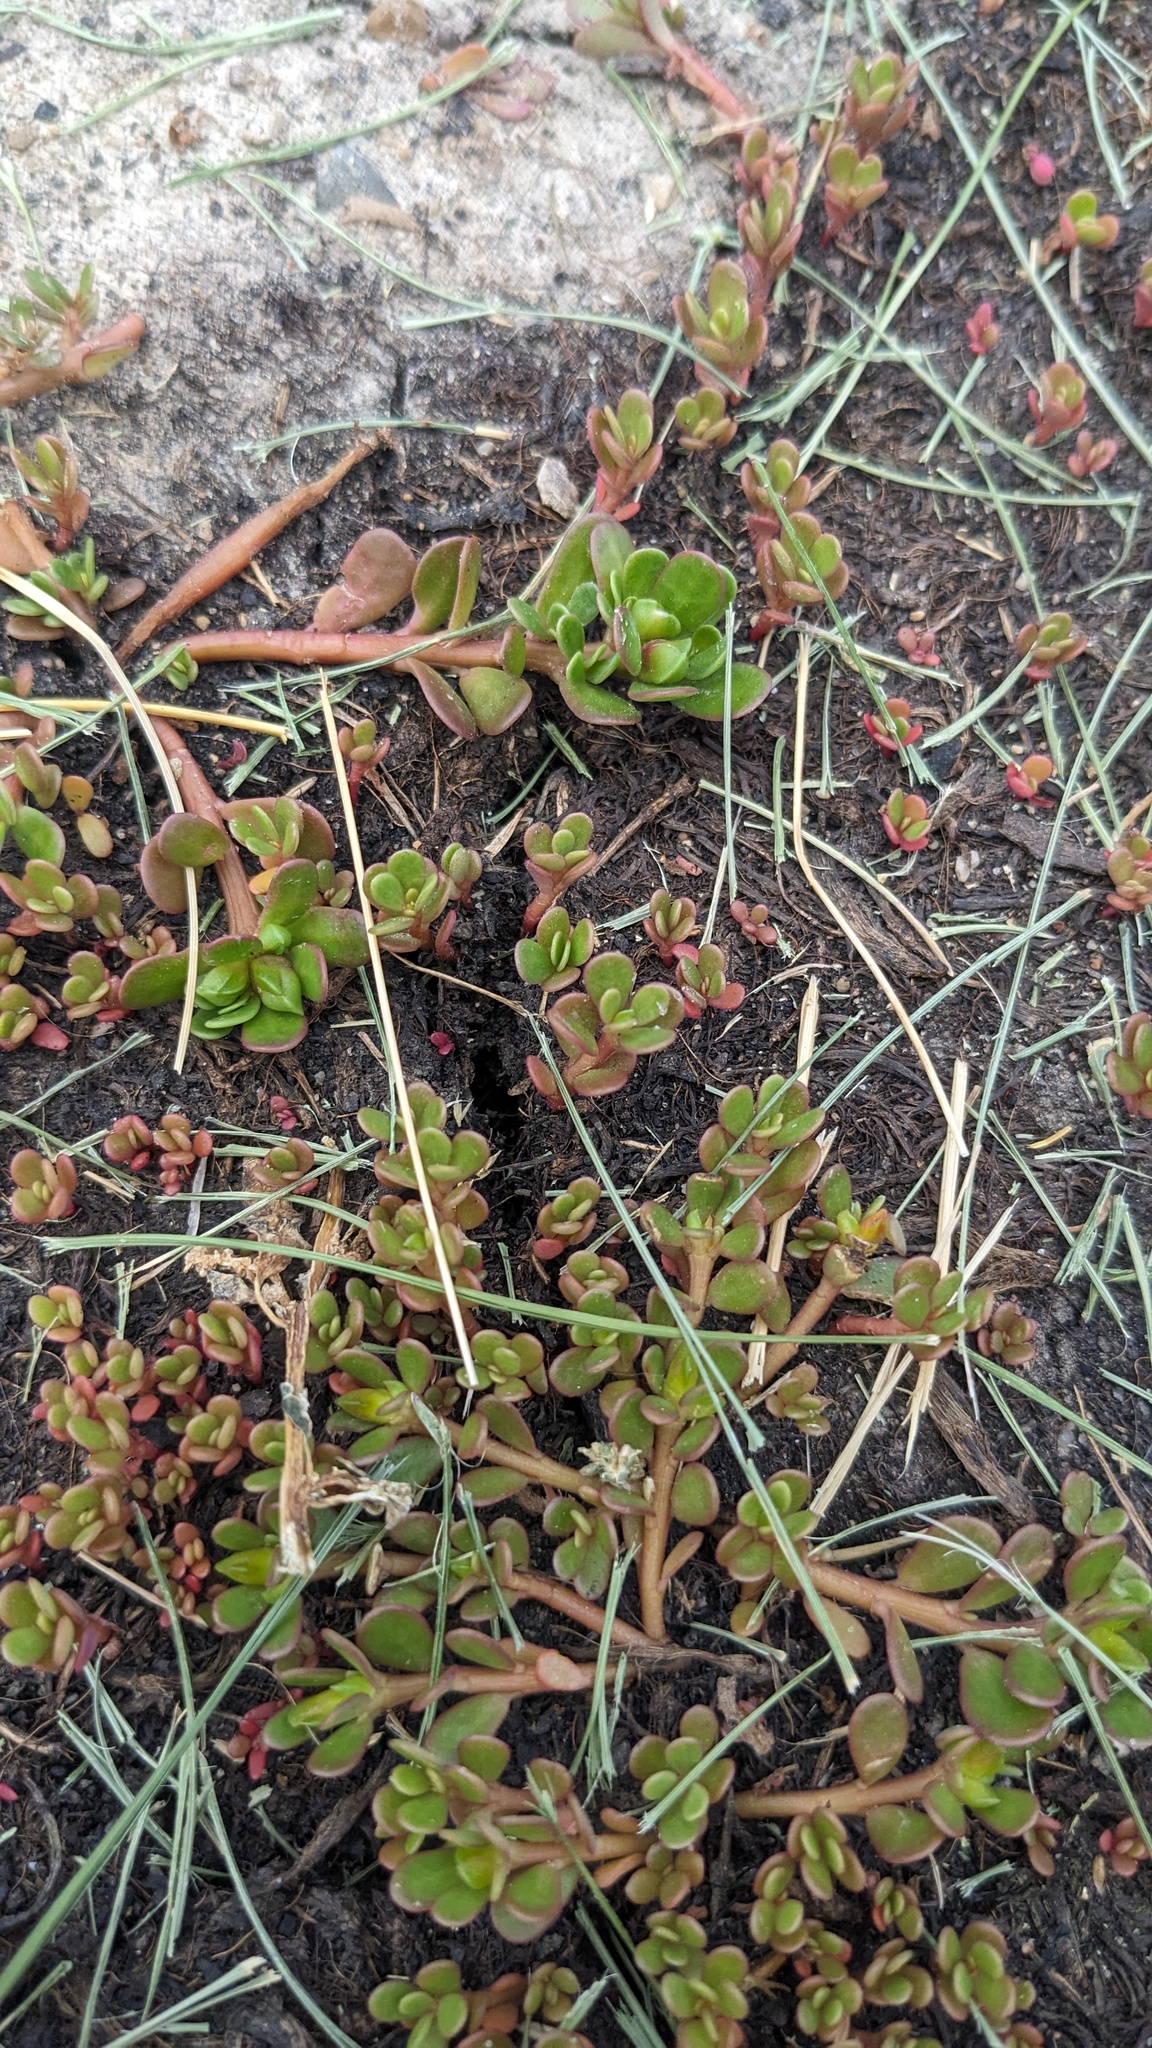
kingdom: Plantae
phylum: Tracheophyta
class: Magnoliopsida
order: Caryophyllales
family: Portulacaceae
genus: Portulaca
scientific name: Portulaca oleracea
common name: Common purslane
